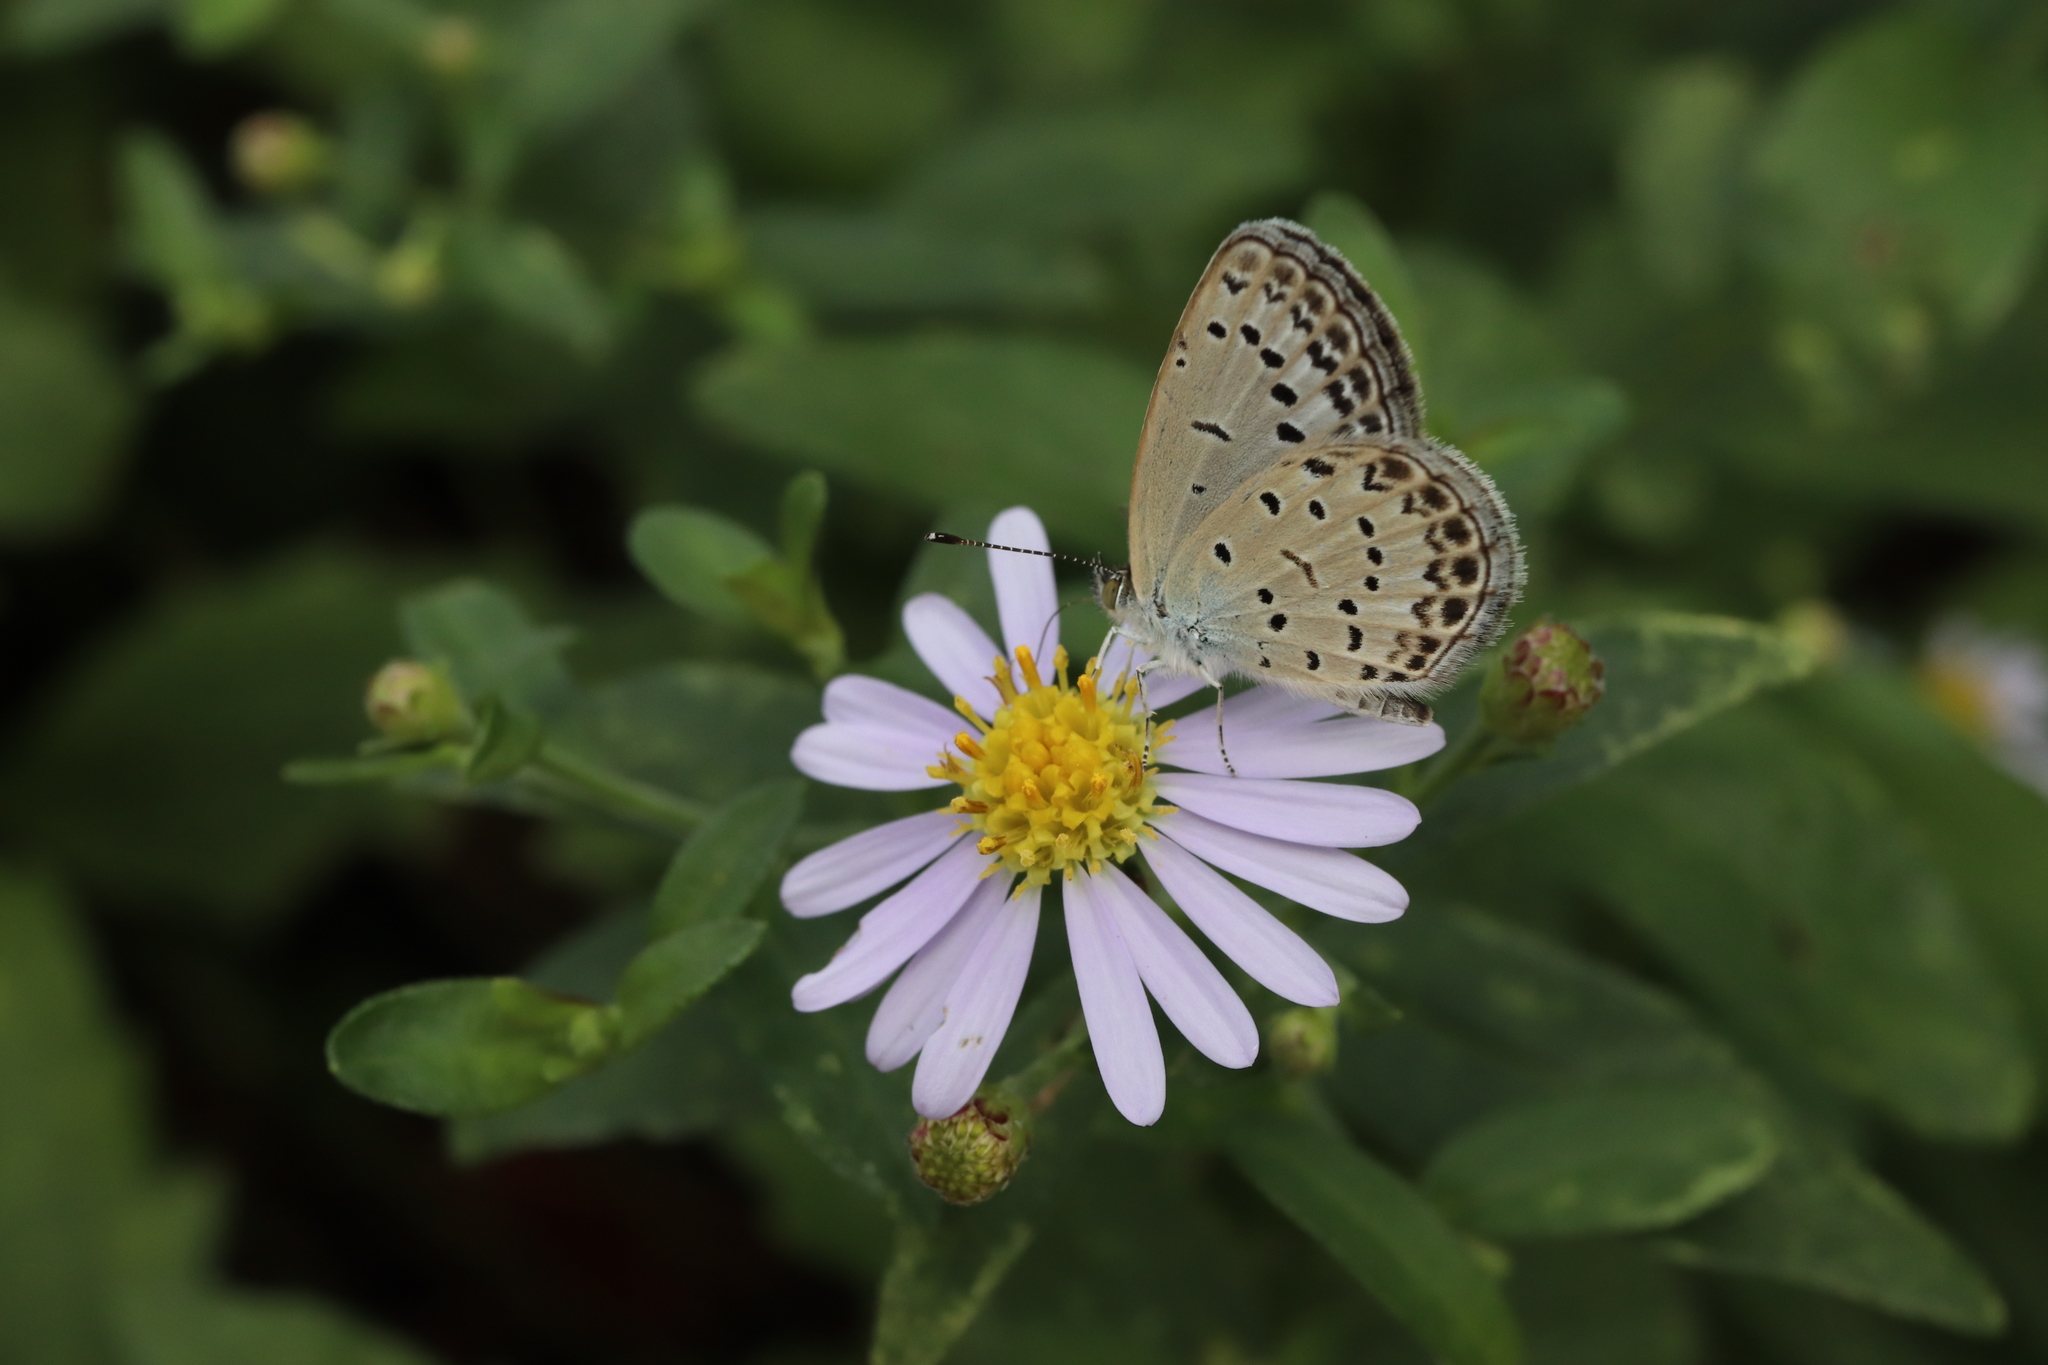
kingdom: Animalia
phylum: Arthropoda
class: Insecta
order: Lepidoptera
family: Lycaenidae
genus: Pseudozizeeria
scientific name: Pseudozizeeria maha
